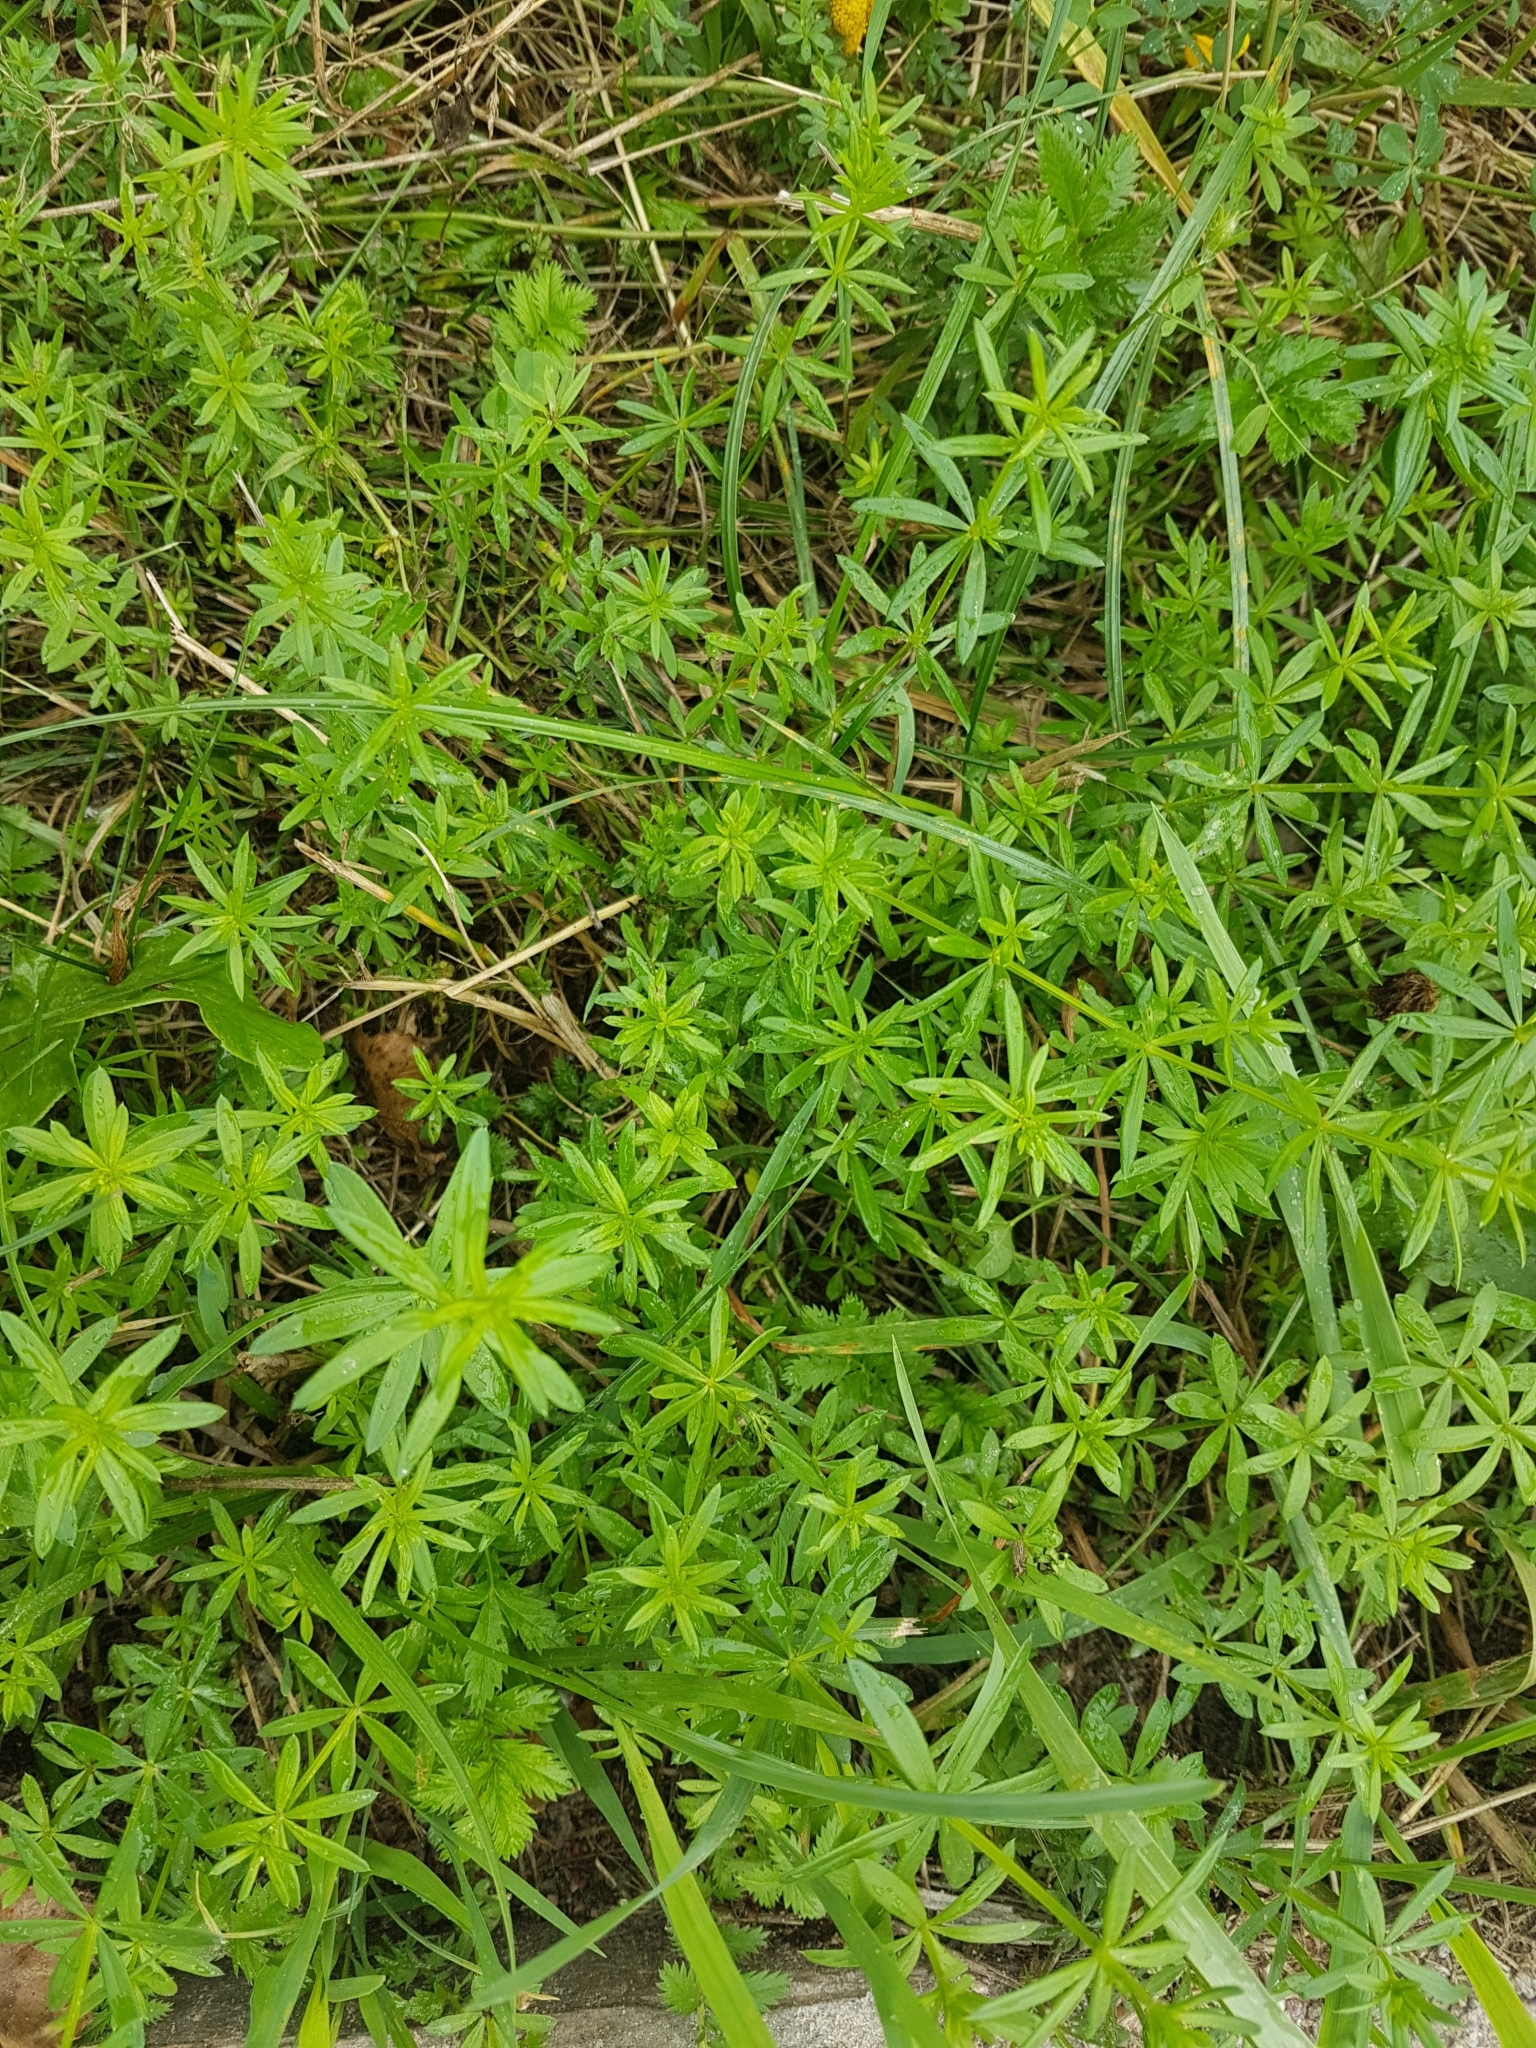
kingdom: Plantae
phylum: Tracheophyta
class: Magnoliopsida
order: Gentianales
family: Rubiaceae
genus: Galium
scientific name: Galium mollugo
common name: Hedge bedstraw
